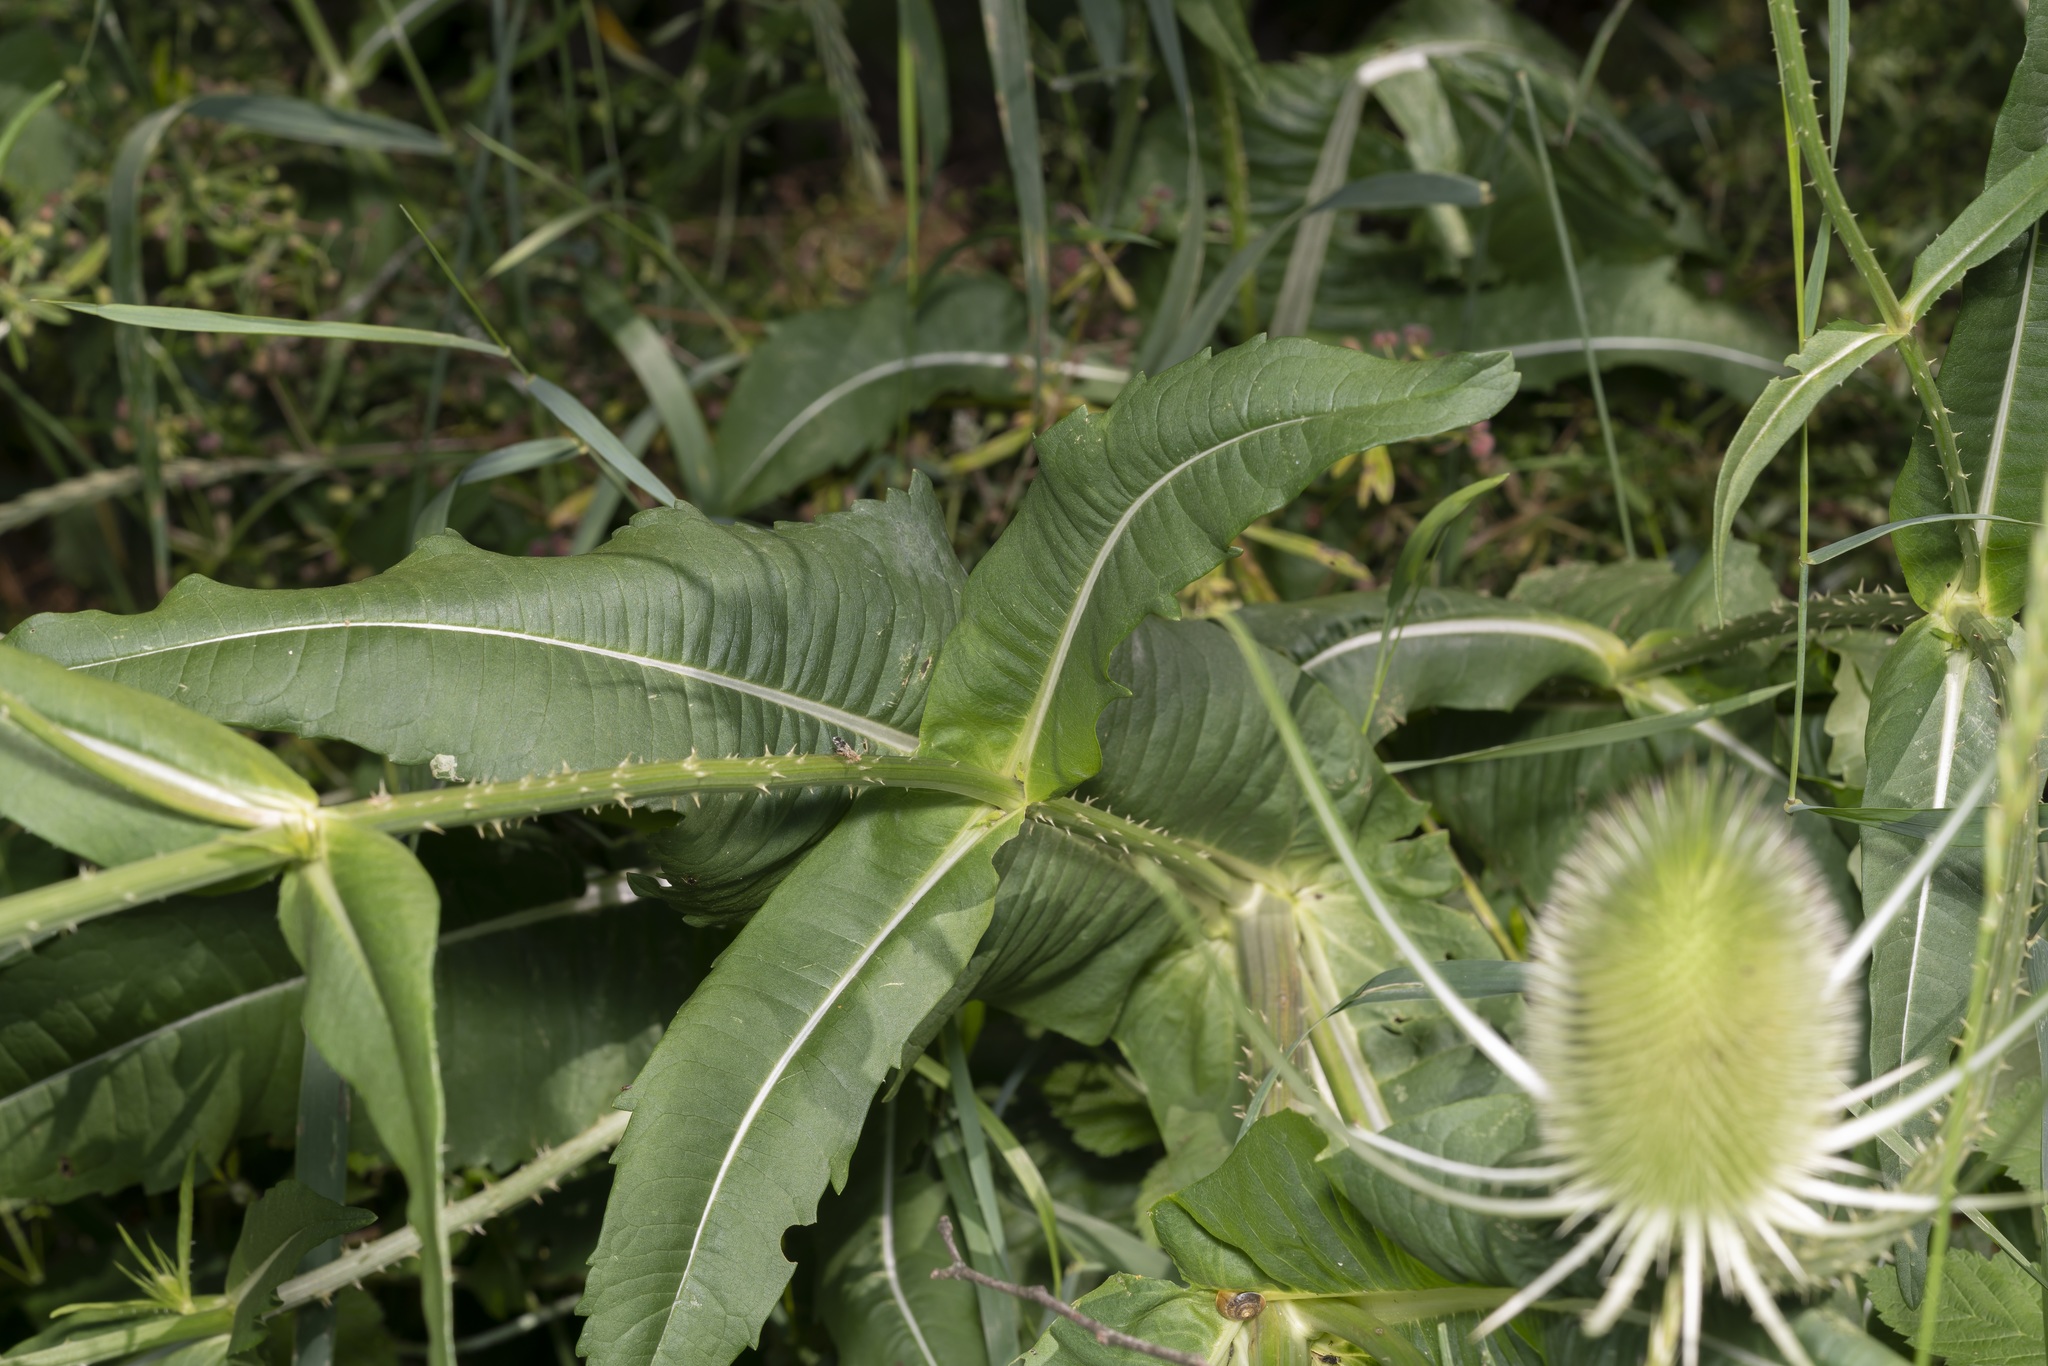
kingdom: Plantae
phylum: Tracheophyta
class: Magnoliopsida
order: Dipsacales
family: Caprifoliaceae
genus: Dipsacus
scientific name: Dipsacus fullonum
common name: Teasel
